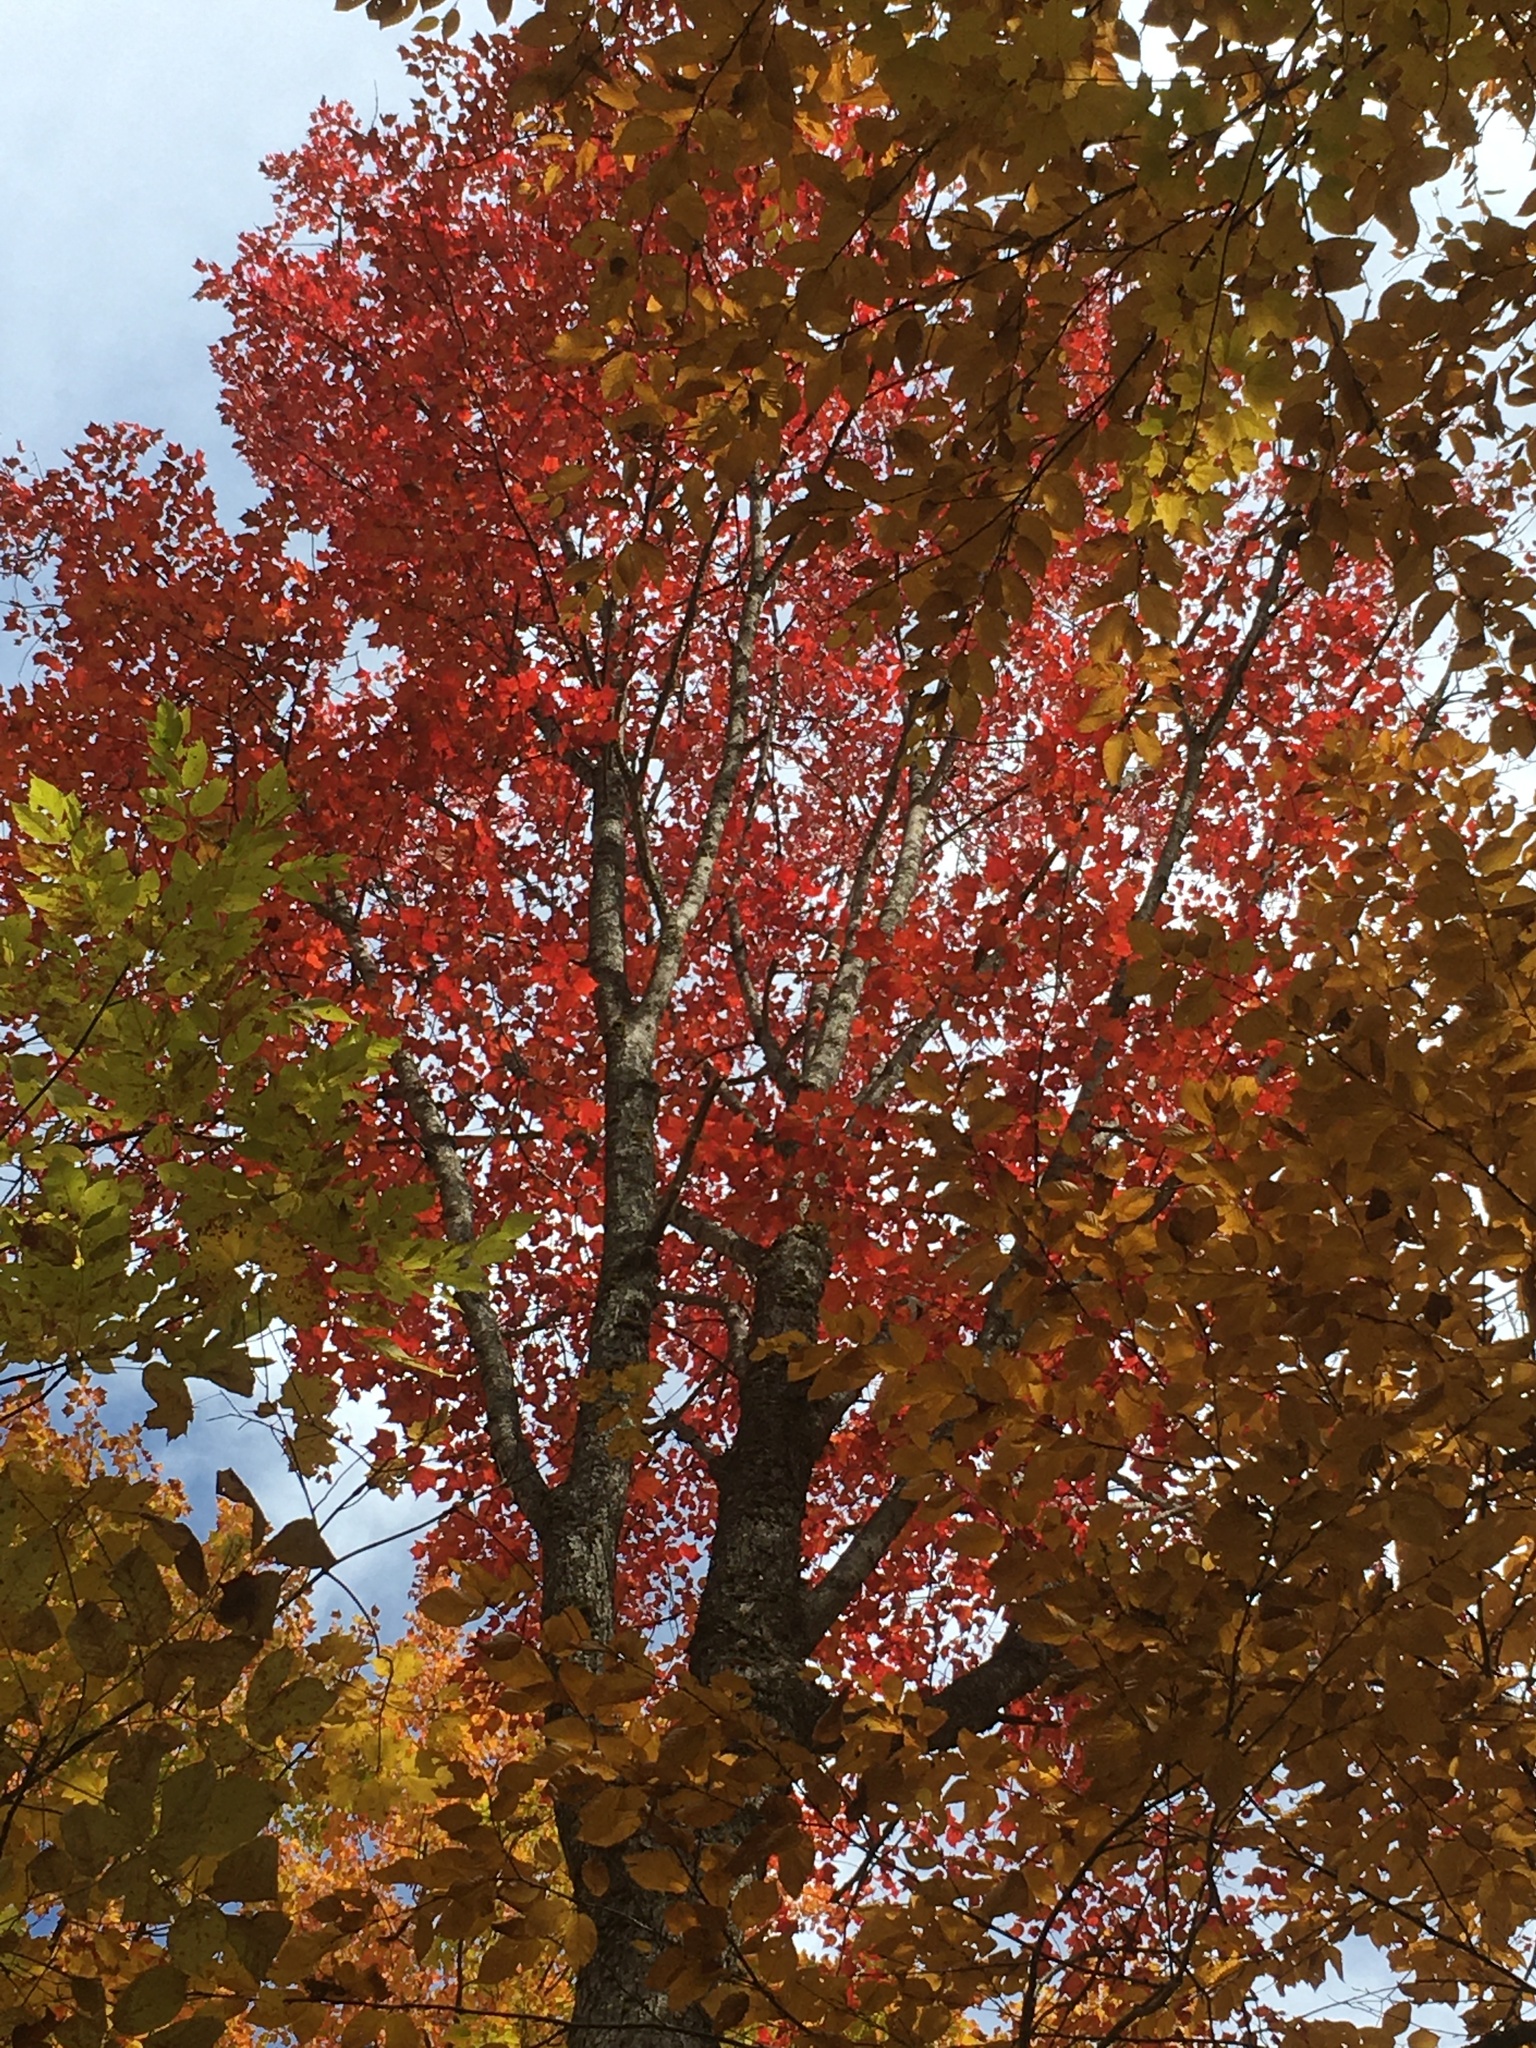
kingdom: Plantae
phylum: Tracheophyta
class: Magnoliopsida
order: Sapindales
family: Sapindaceae
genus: Acer
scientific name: Acer rubrum
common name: Red maple
